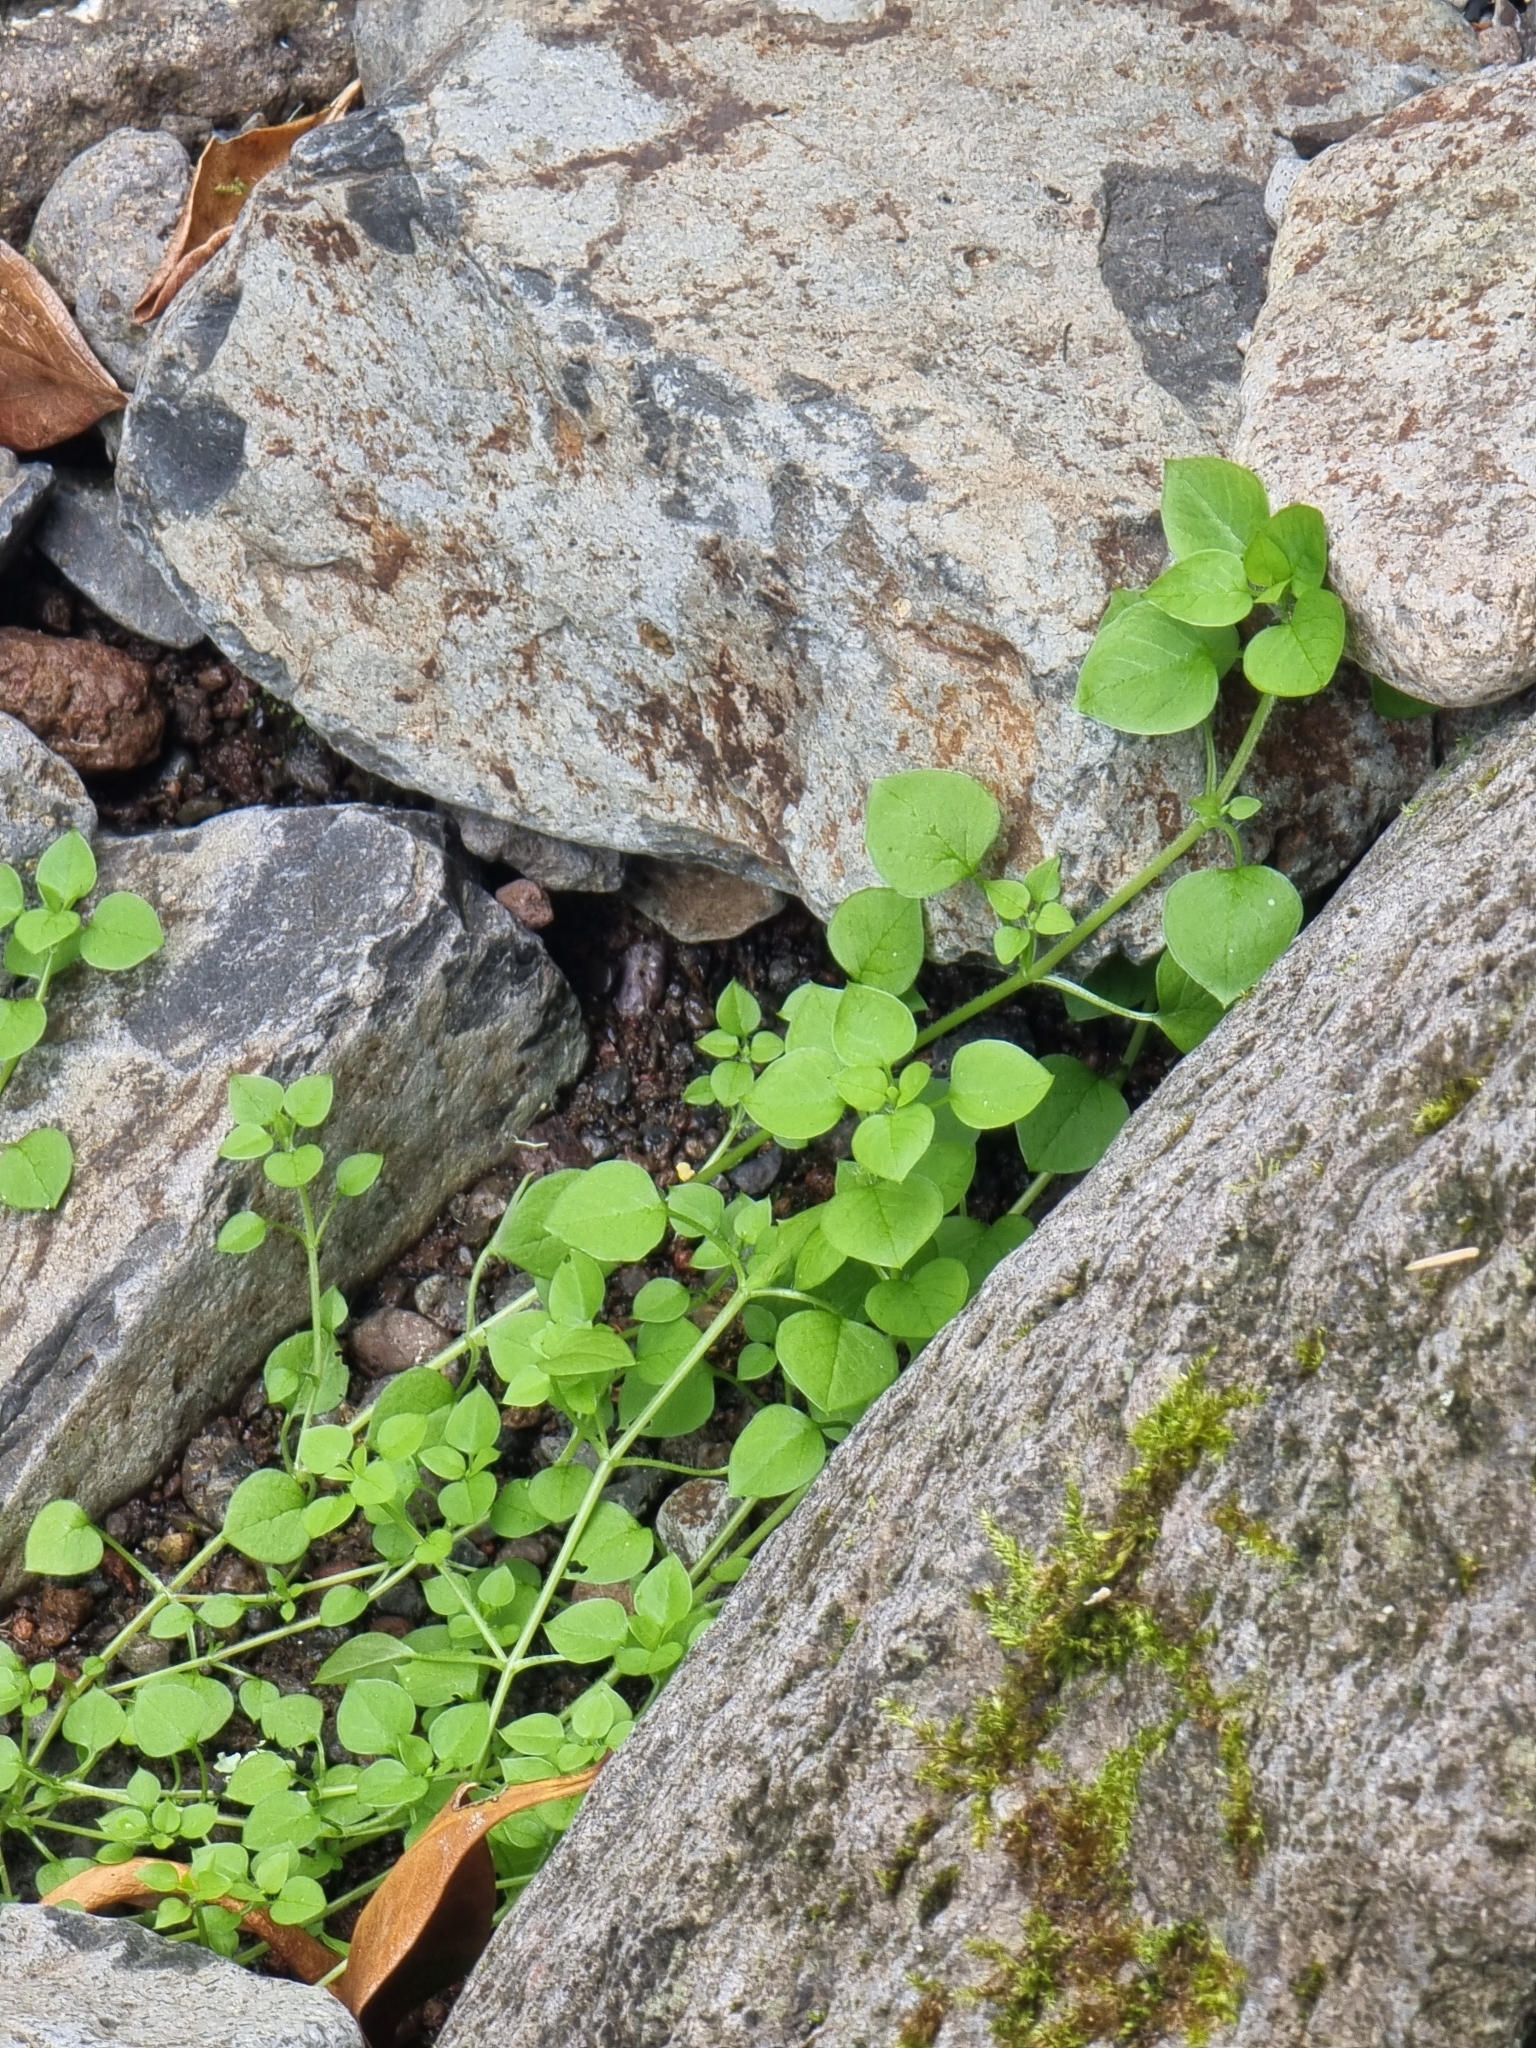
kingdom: Plantae
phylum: Tracheophyta
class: Magnoliopsida
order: Caryophyllales
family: Caryophyllaceae
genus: Stellaria
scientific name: Stellaria media
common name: Common chickweed
